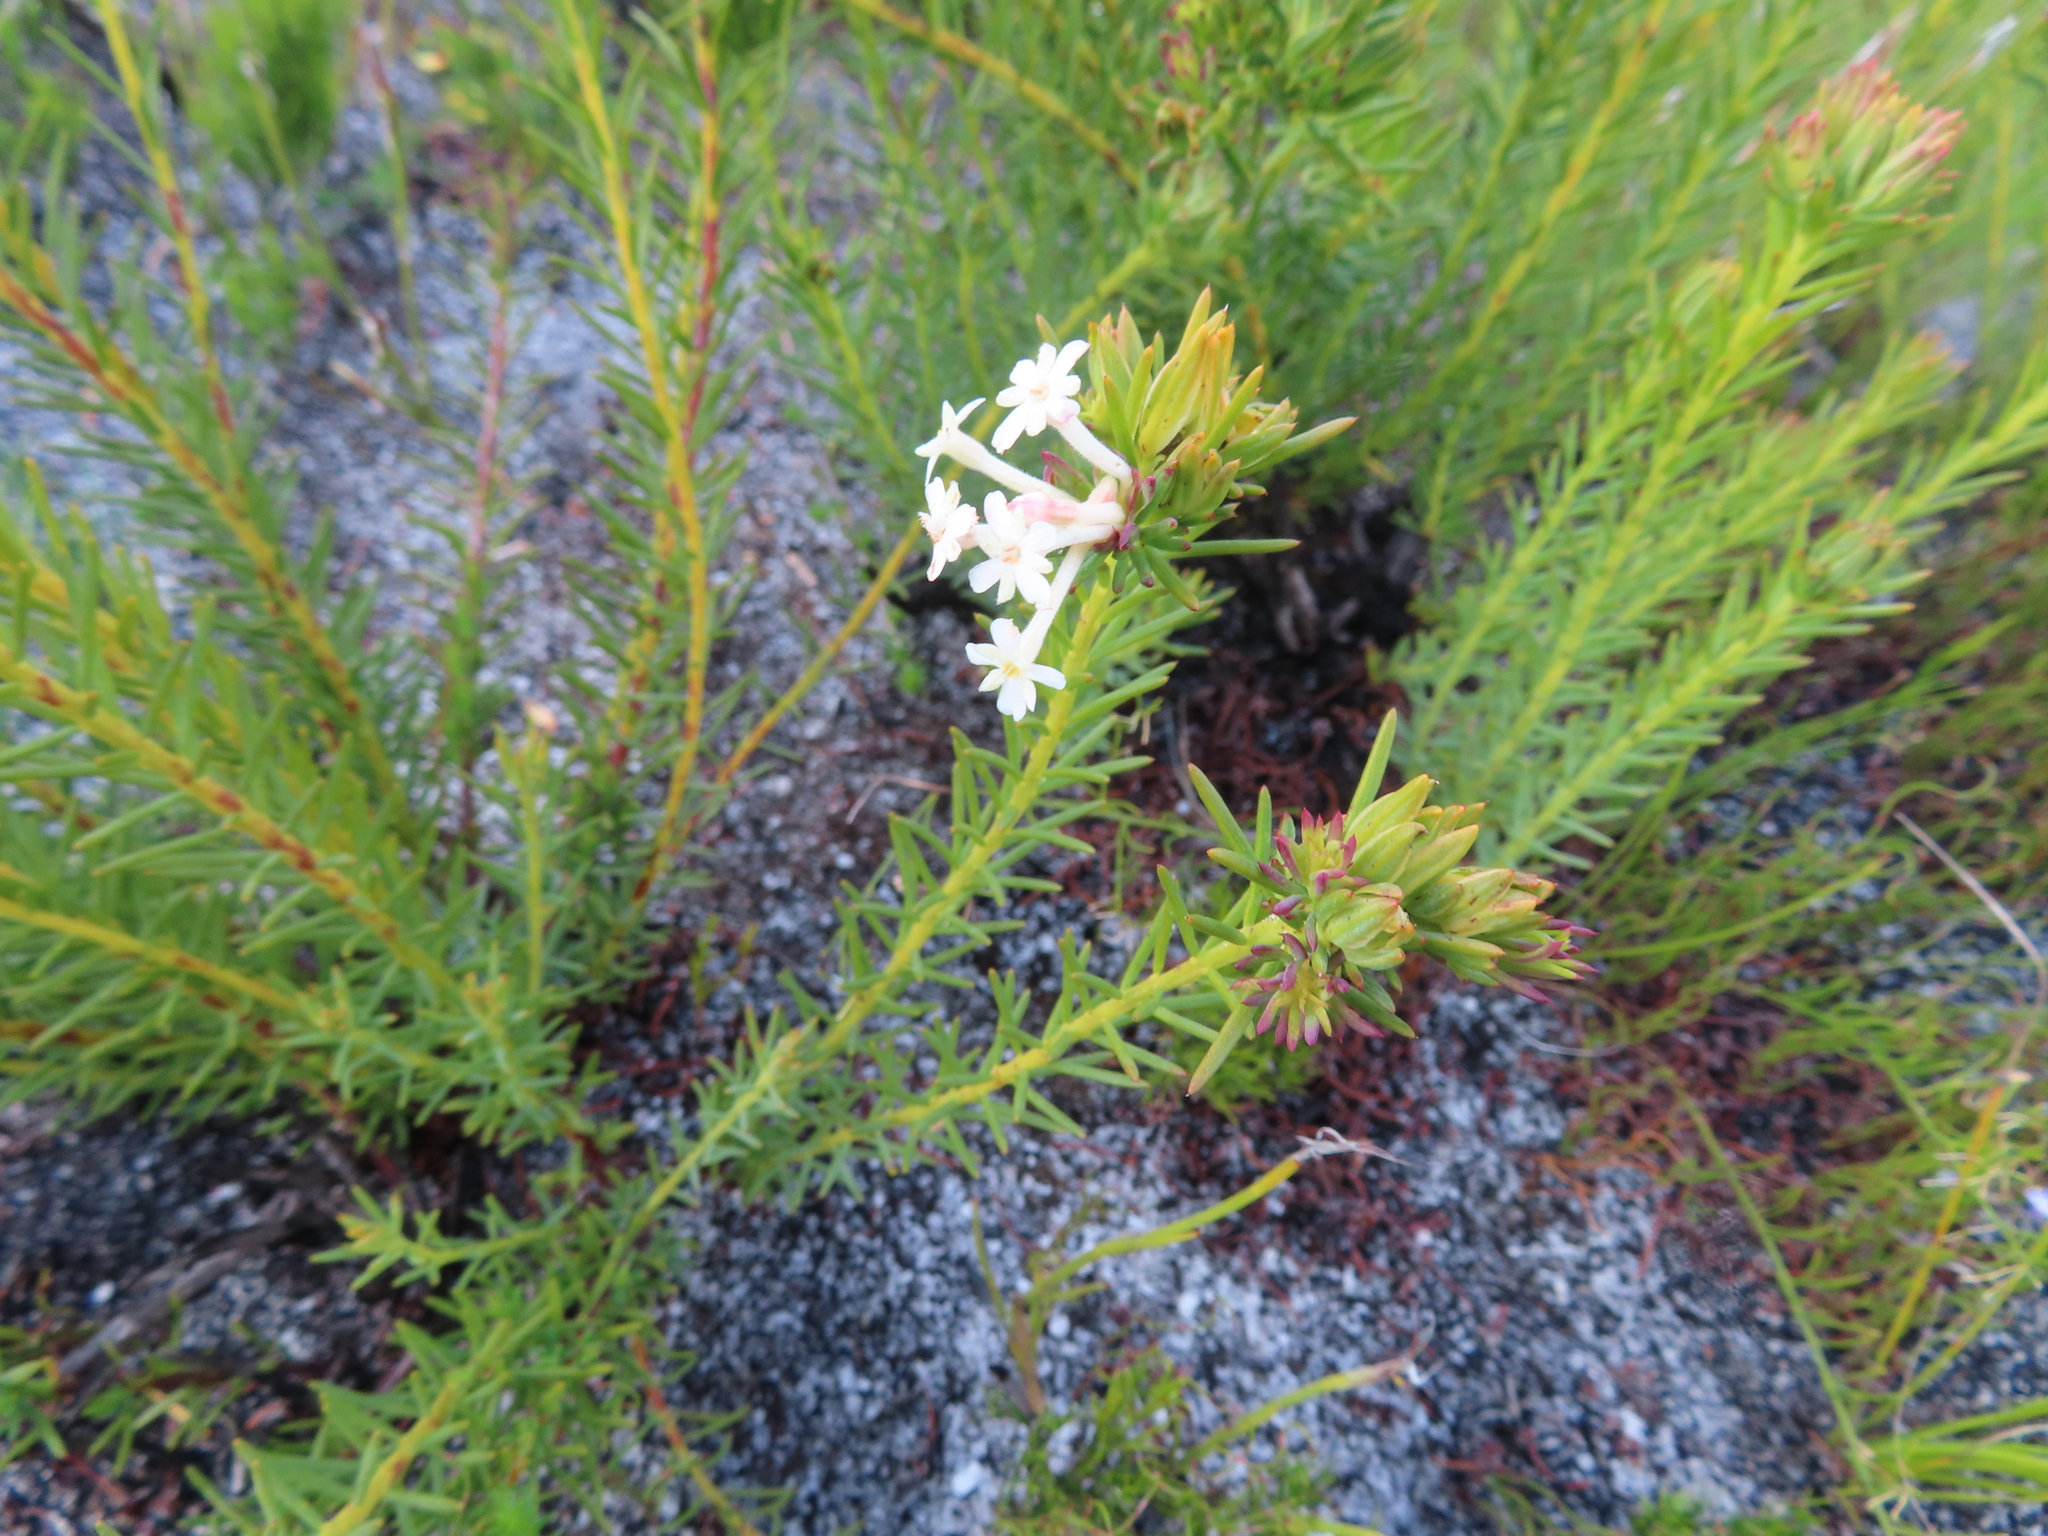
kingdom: Plantae
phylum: Tracheophyta
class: Magnoliopsida
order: Malvales
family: Thymelaeaceae
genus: Gnidia
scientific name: Gnidia pinifolia
